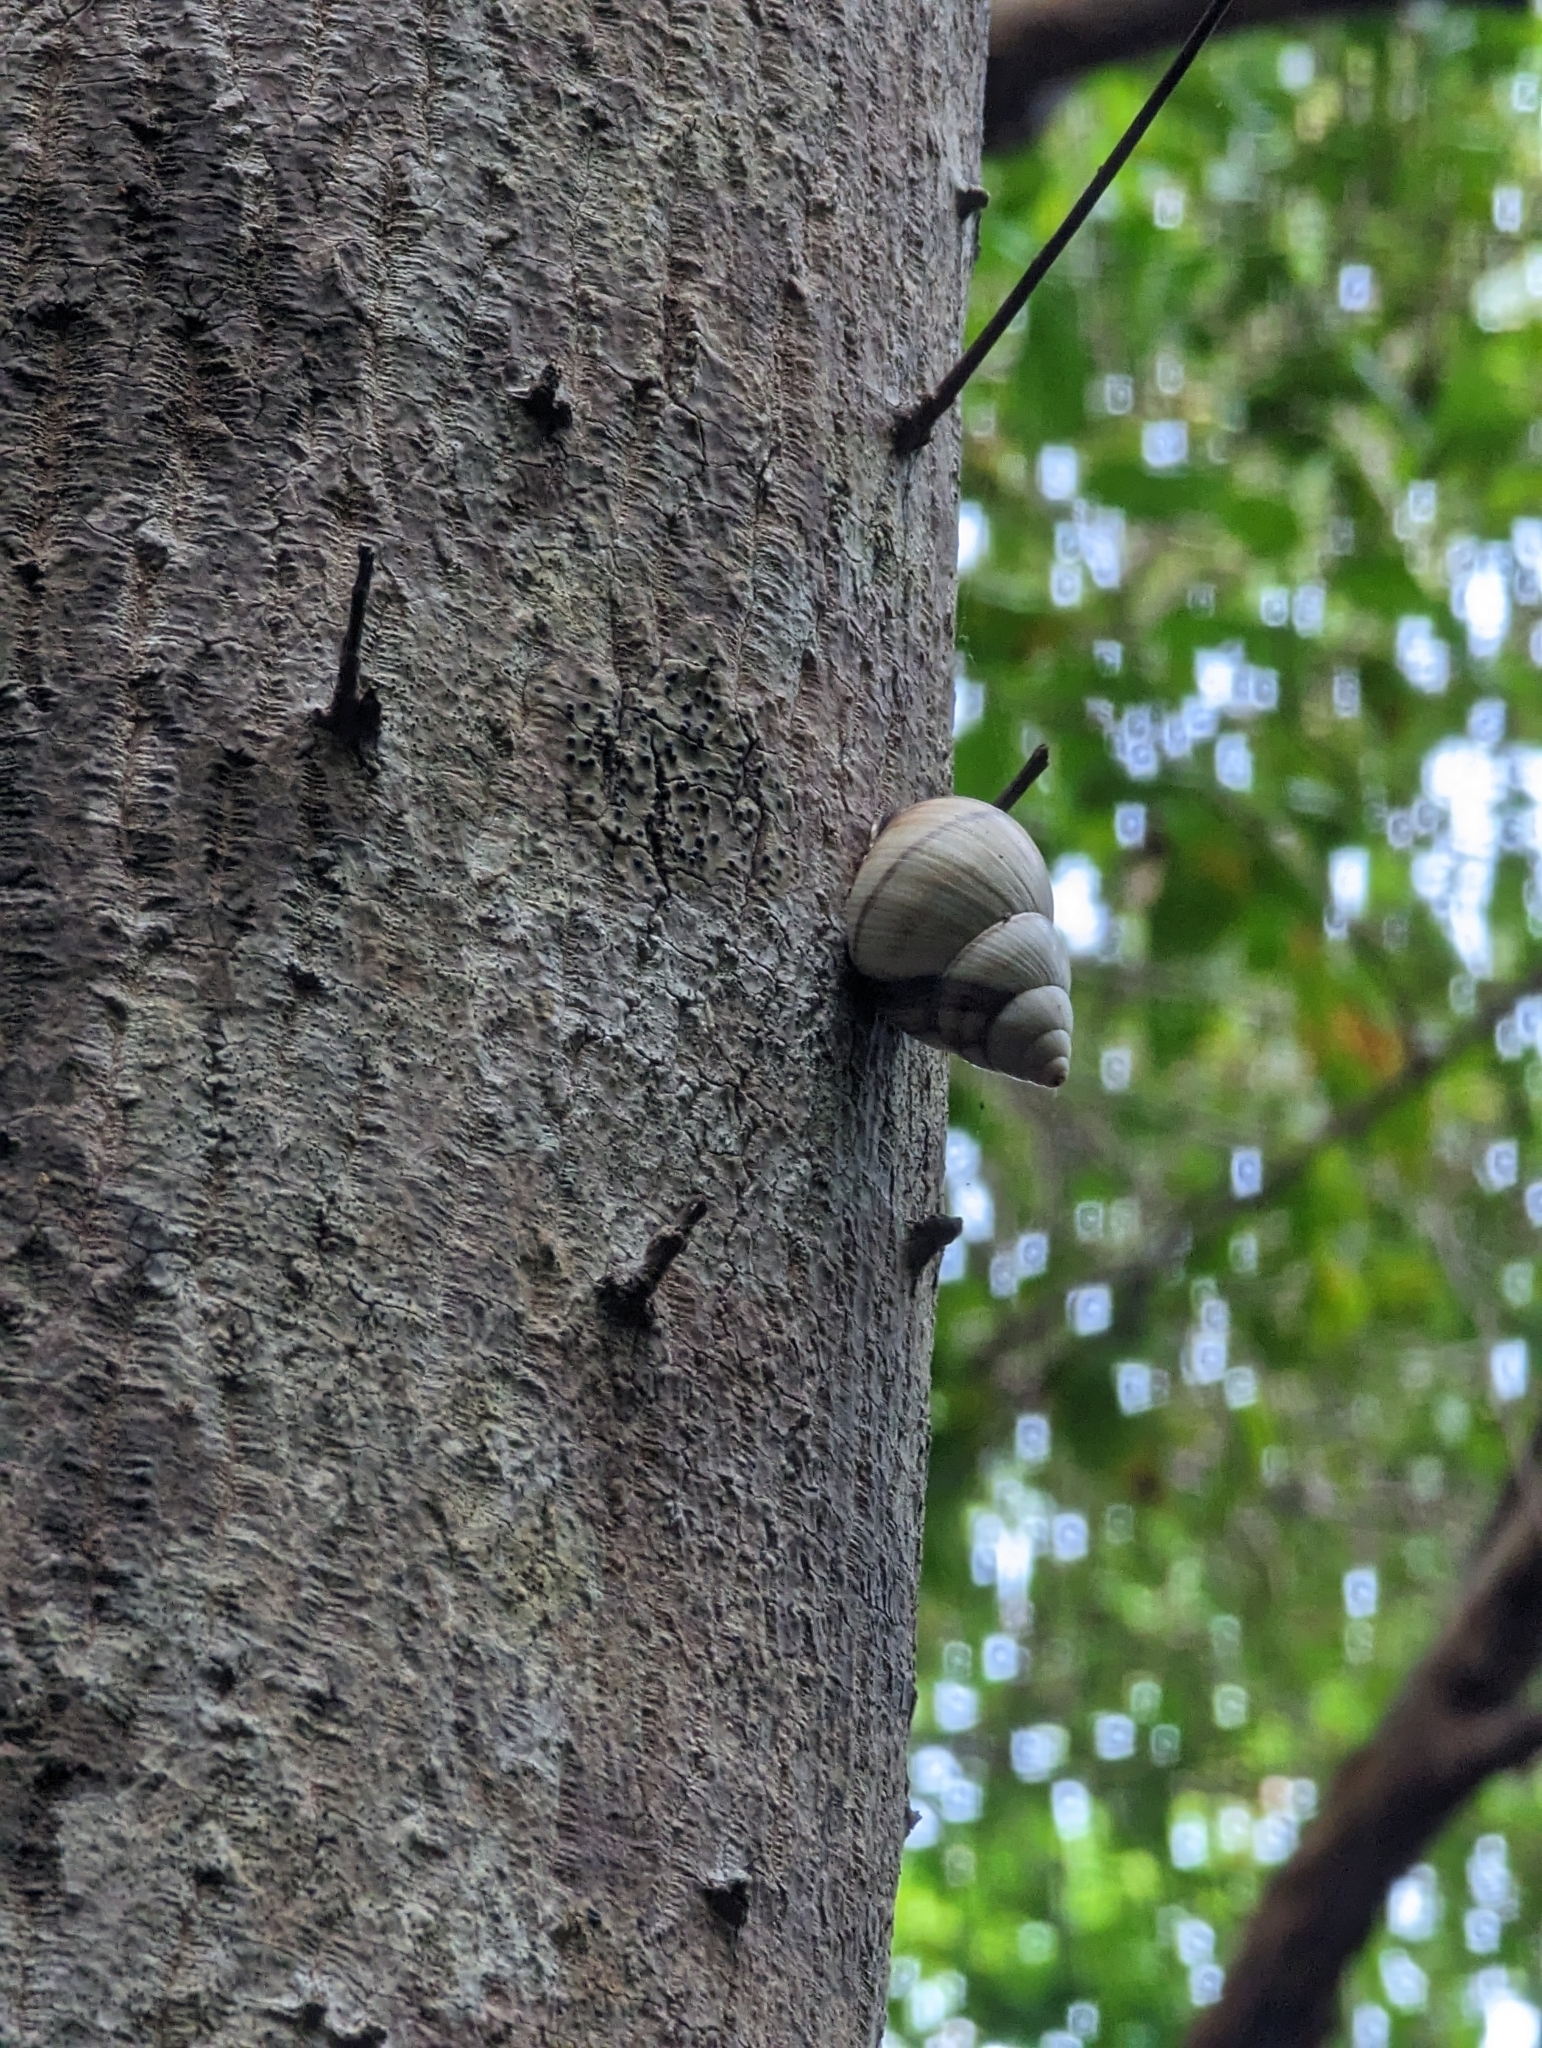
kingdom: Animalia
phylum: Mollusca
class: Gastropoda
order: Stylommatophora
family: Orthalicidae
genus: Orthalicus
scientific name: Orthalicus floridensis
